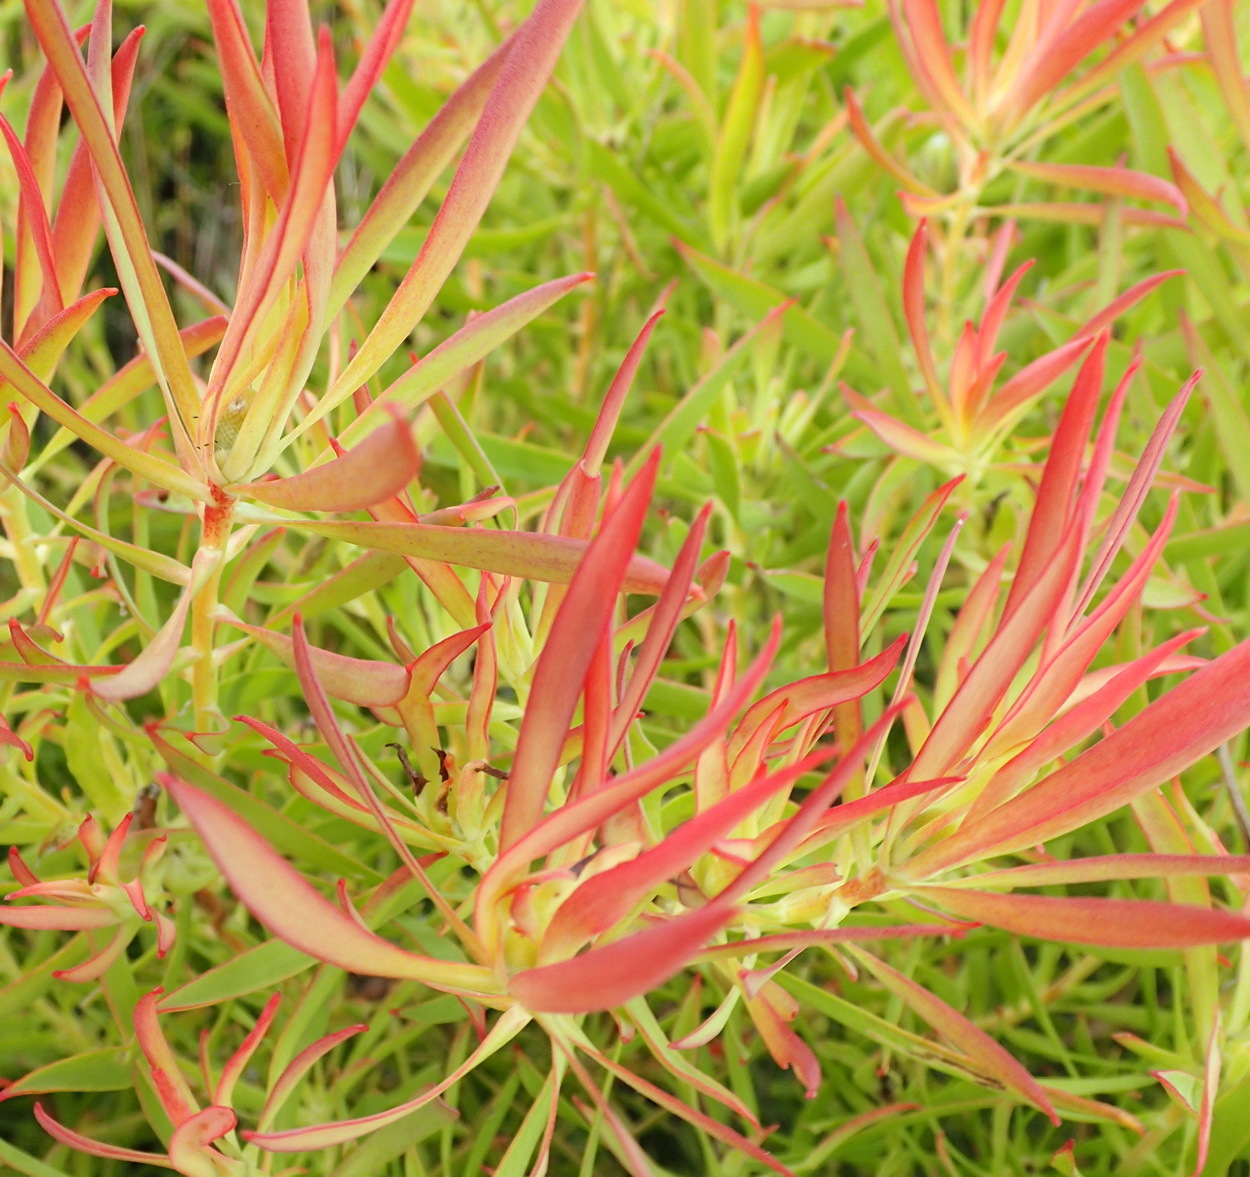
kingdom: Plantae
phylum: Tracheophyta
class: Magnoliopsida
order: Proteales
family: Proteaceae
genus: Leucadendron
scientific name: Leucadendron salignum
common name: Common sunshine conebush
